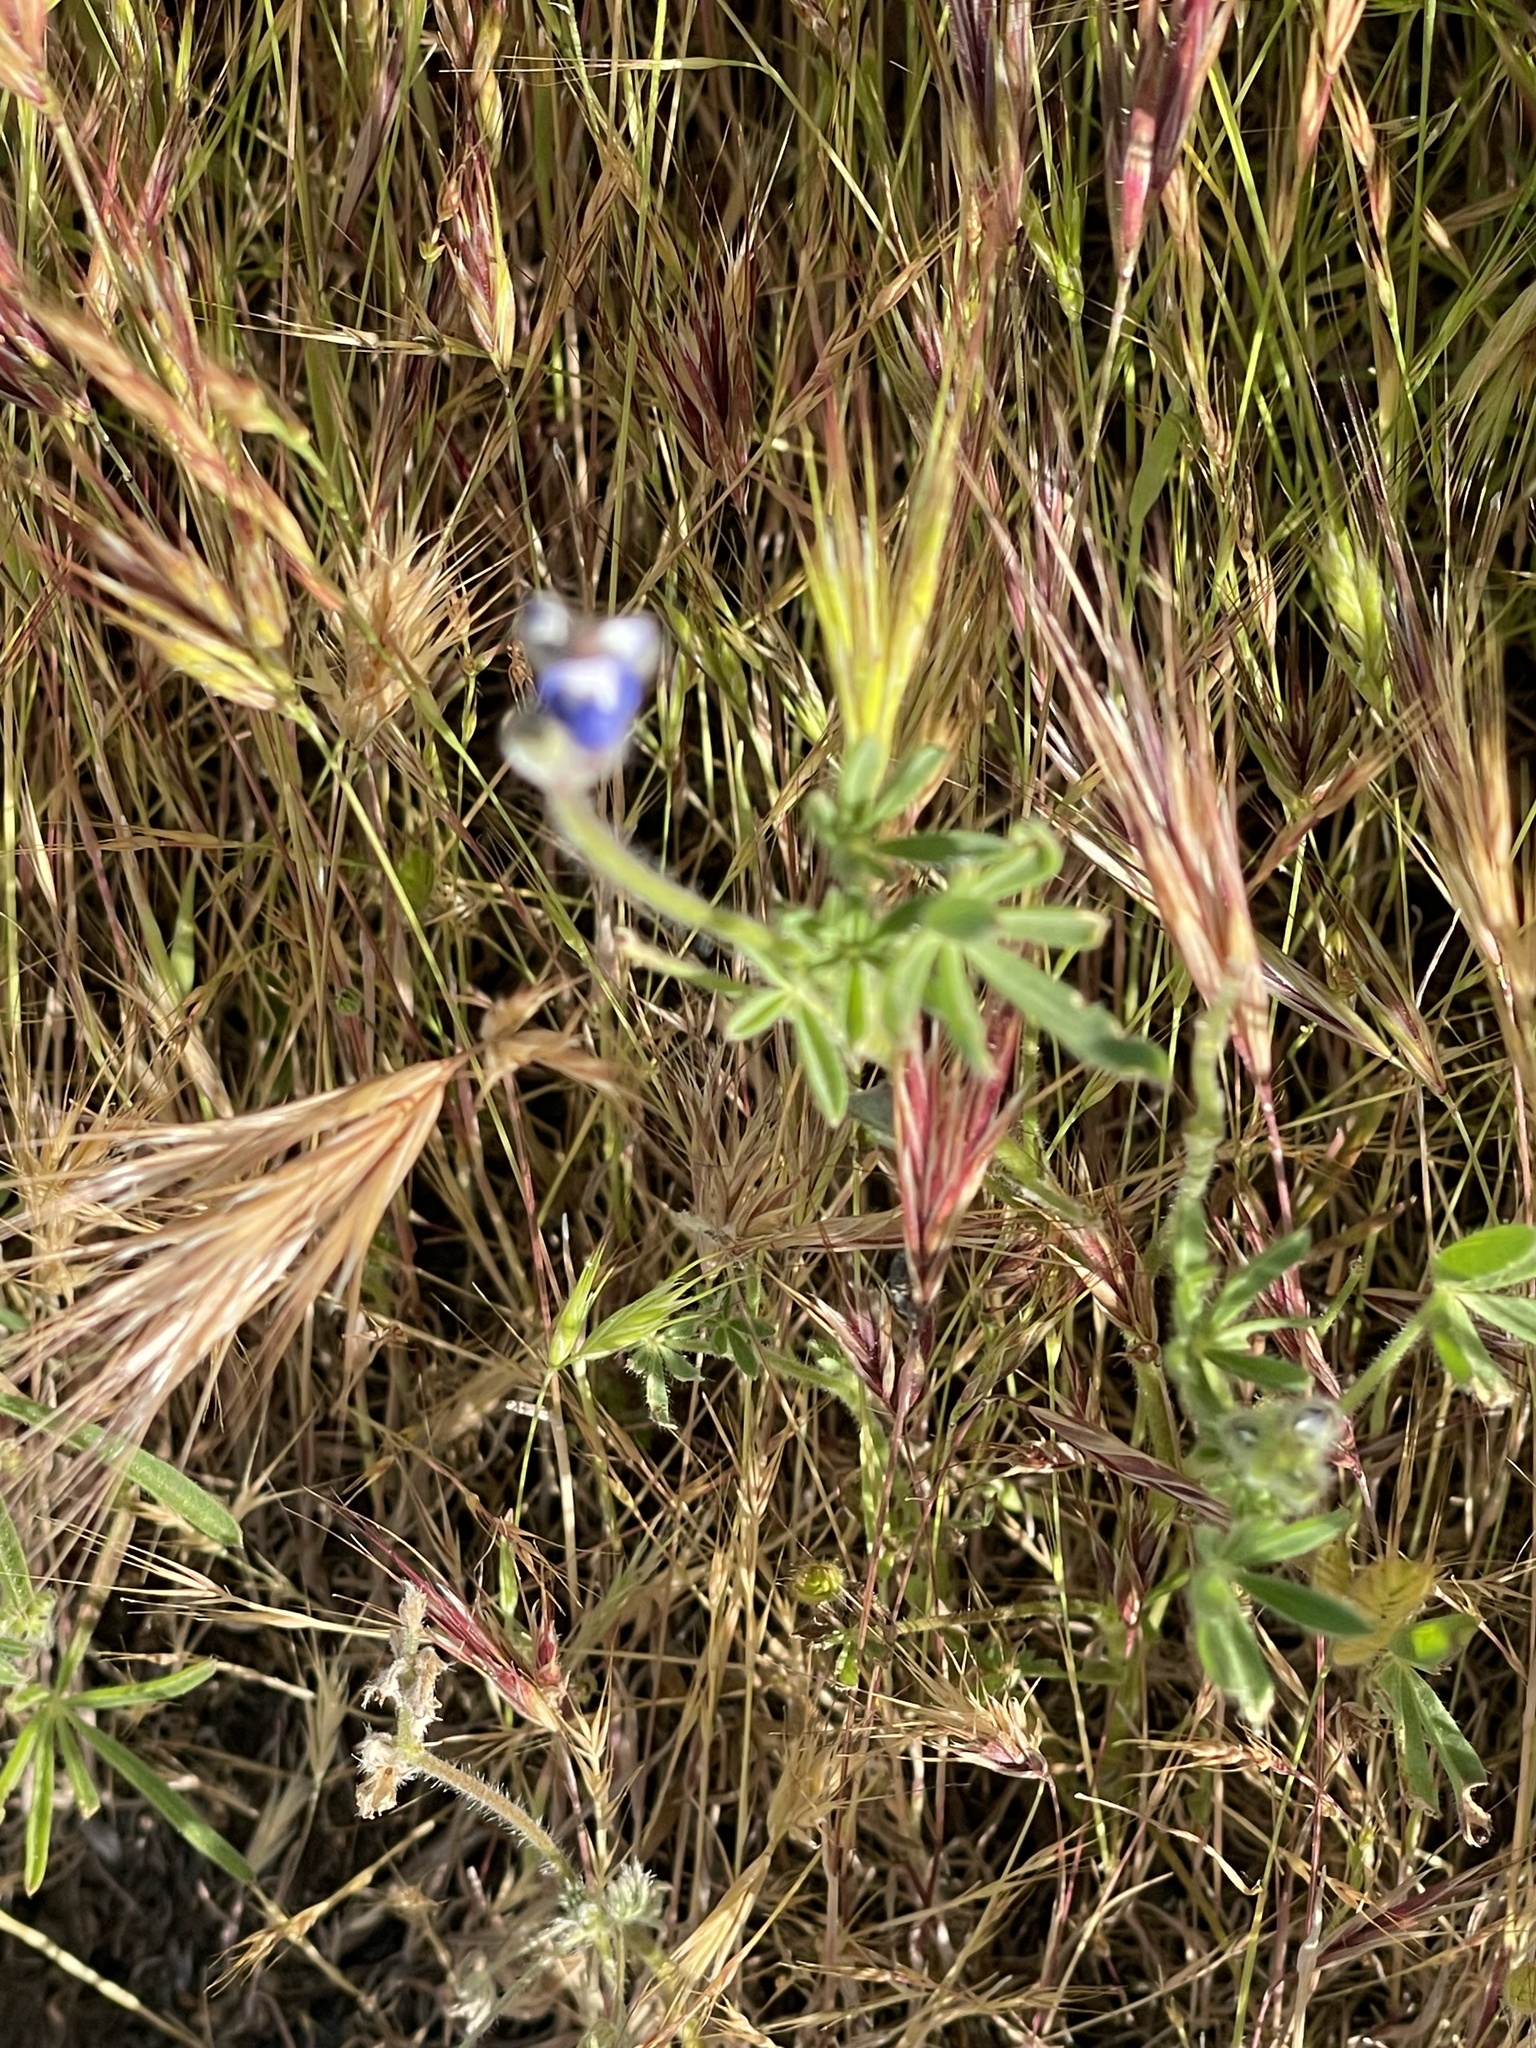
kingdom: Plantae
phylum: Tracheophyta
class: Magnoliopsida
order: Fabales
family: Fabaceae
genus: Lupinus
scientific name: Lupinus bicolor
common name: Miniature lupine
